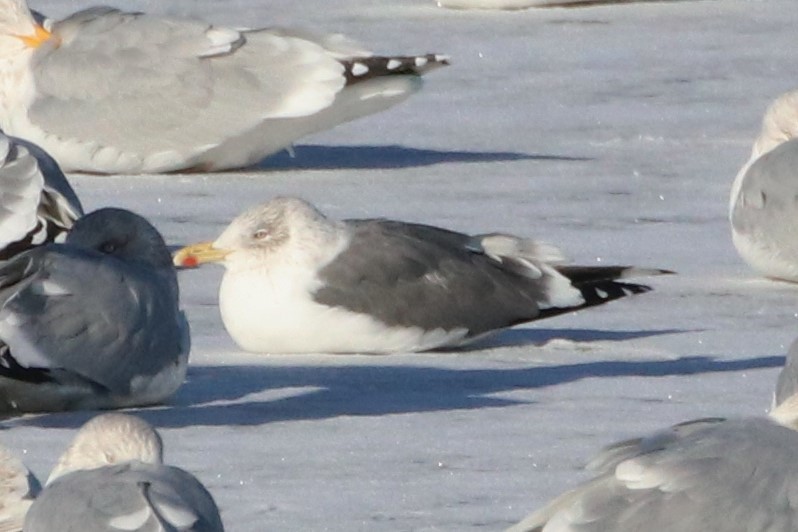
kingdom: Animalia
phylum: Chordata
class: Aves
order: Charadriiformes
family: Laridae
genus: Larus
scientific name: Larus fuscus
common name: Lesser black-backed gull
